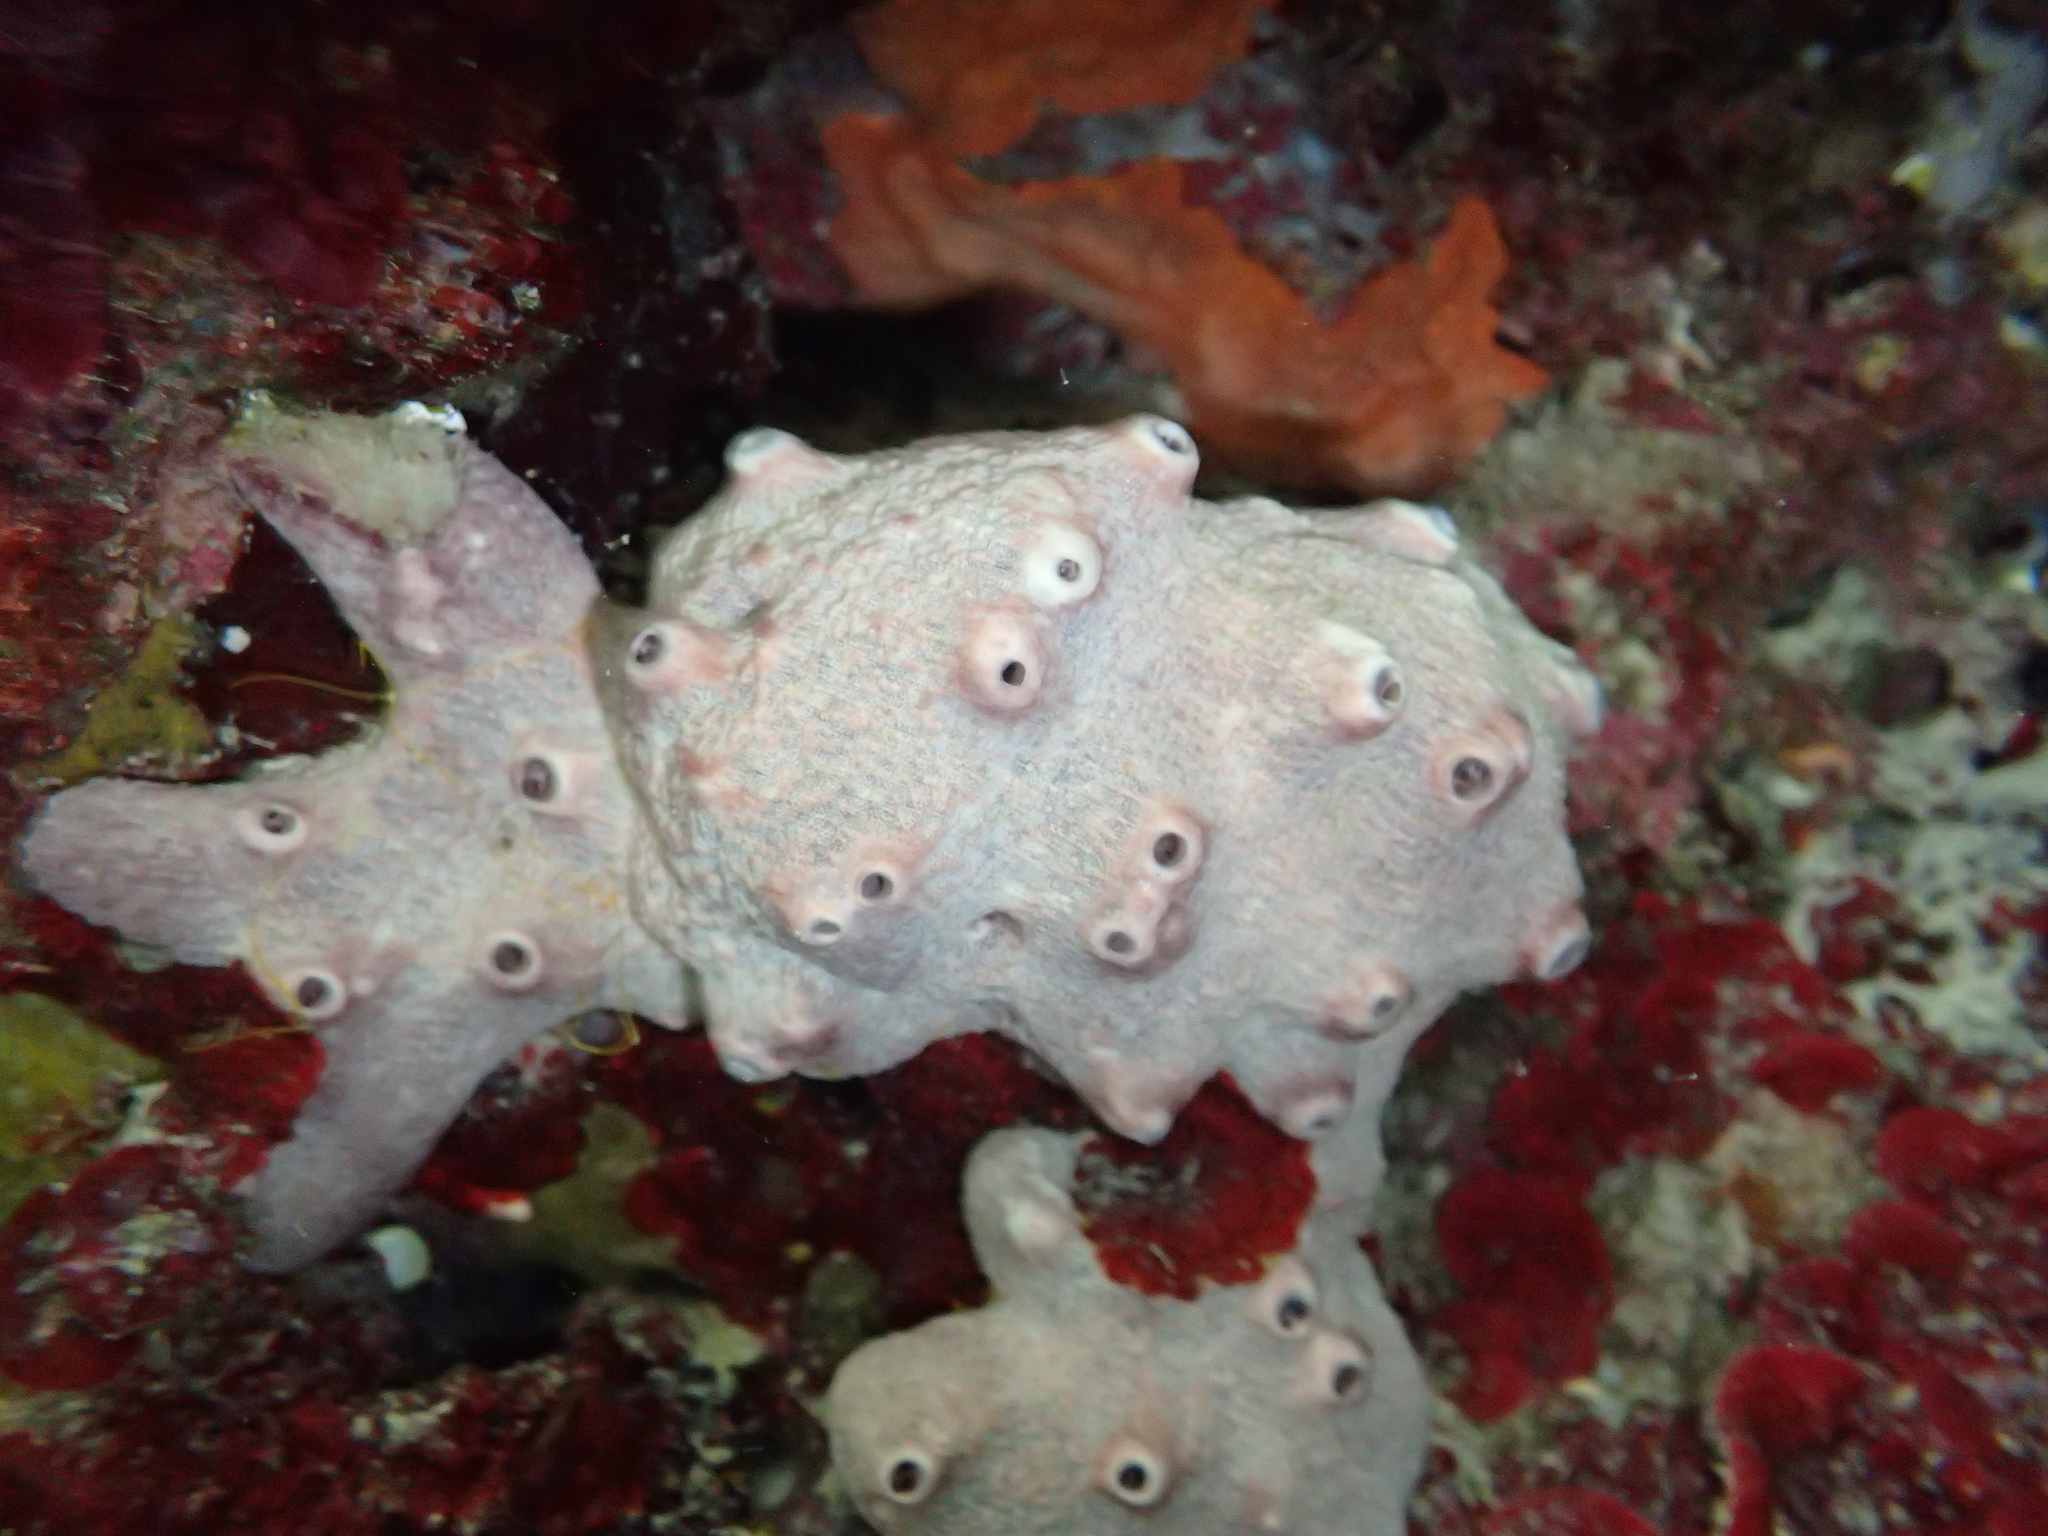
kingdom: Animalia
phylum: Porifera
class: Demospongiae
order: Dictyoceratida
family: Irciniidae
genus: Ircinia
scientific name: Ircinia variabilis
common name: Variable loggerhead sponge
